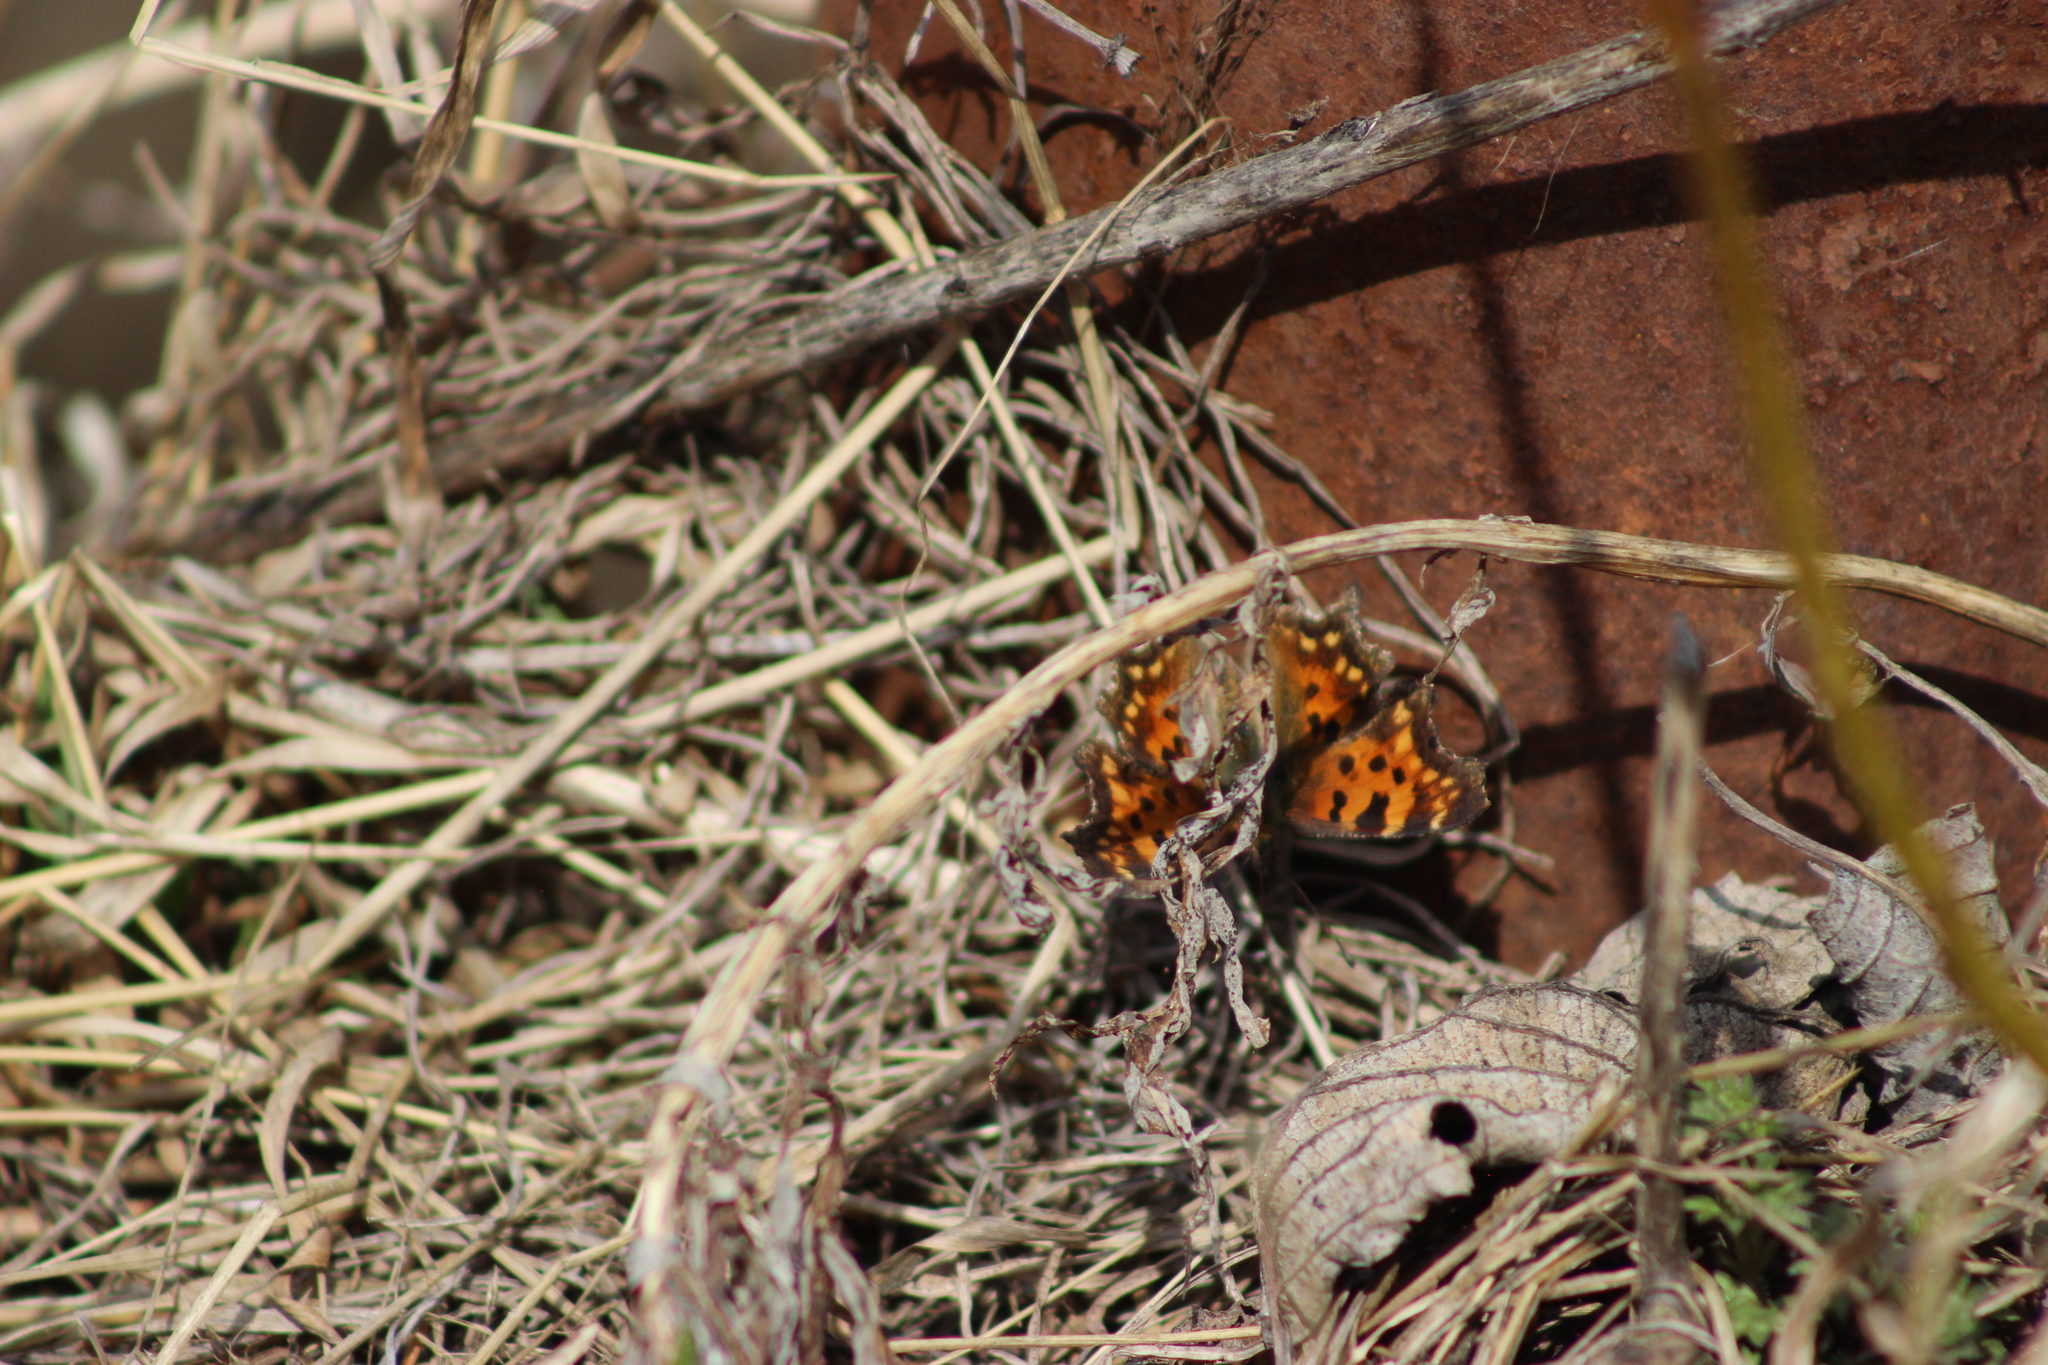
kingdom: Animalia
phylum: Arthropoda
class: Insecta
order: Lepidoptera
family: Nymphalidae
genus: Polygonia
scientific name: Polygonia c-album
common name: Comma
